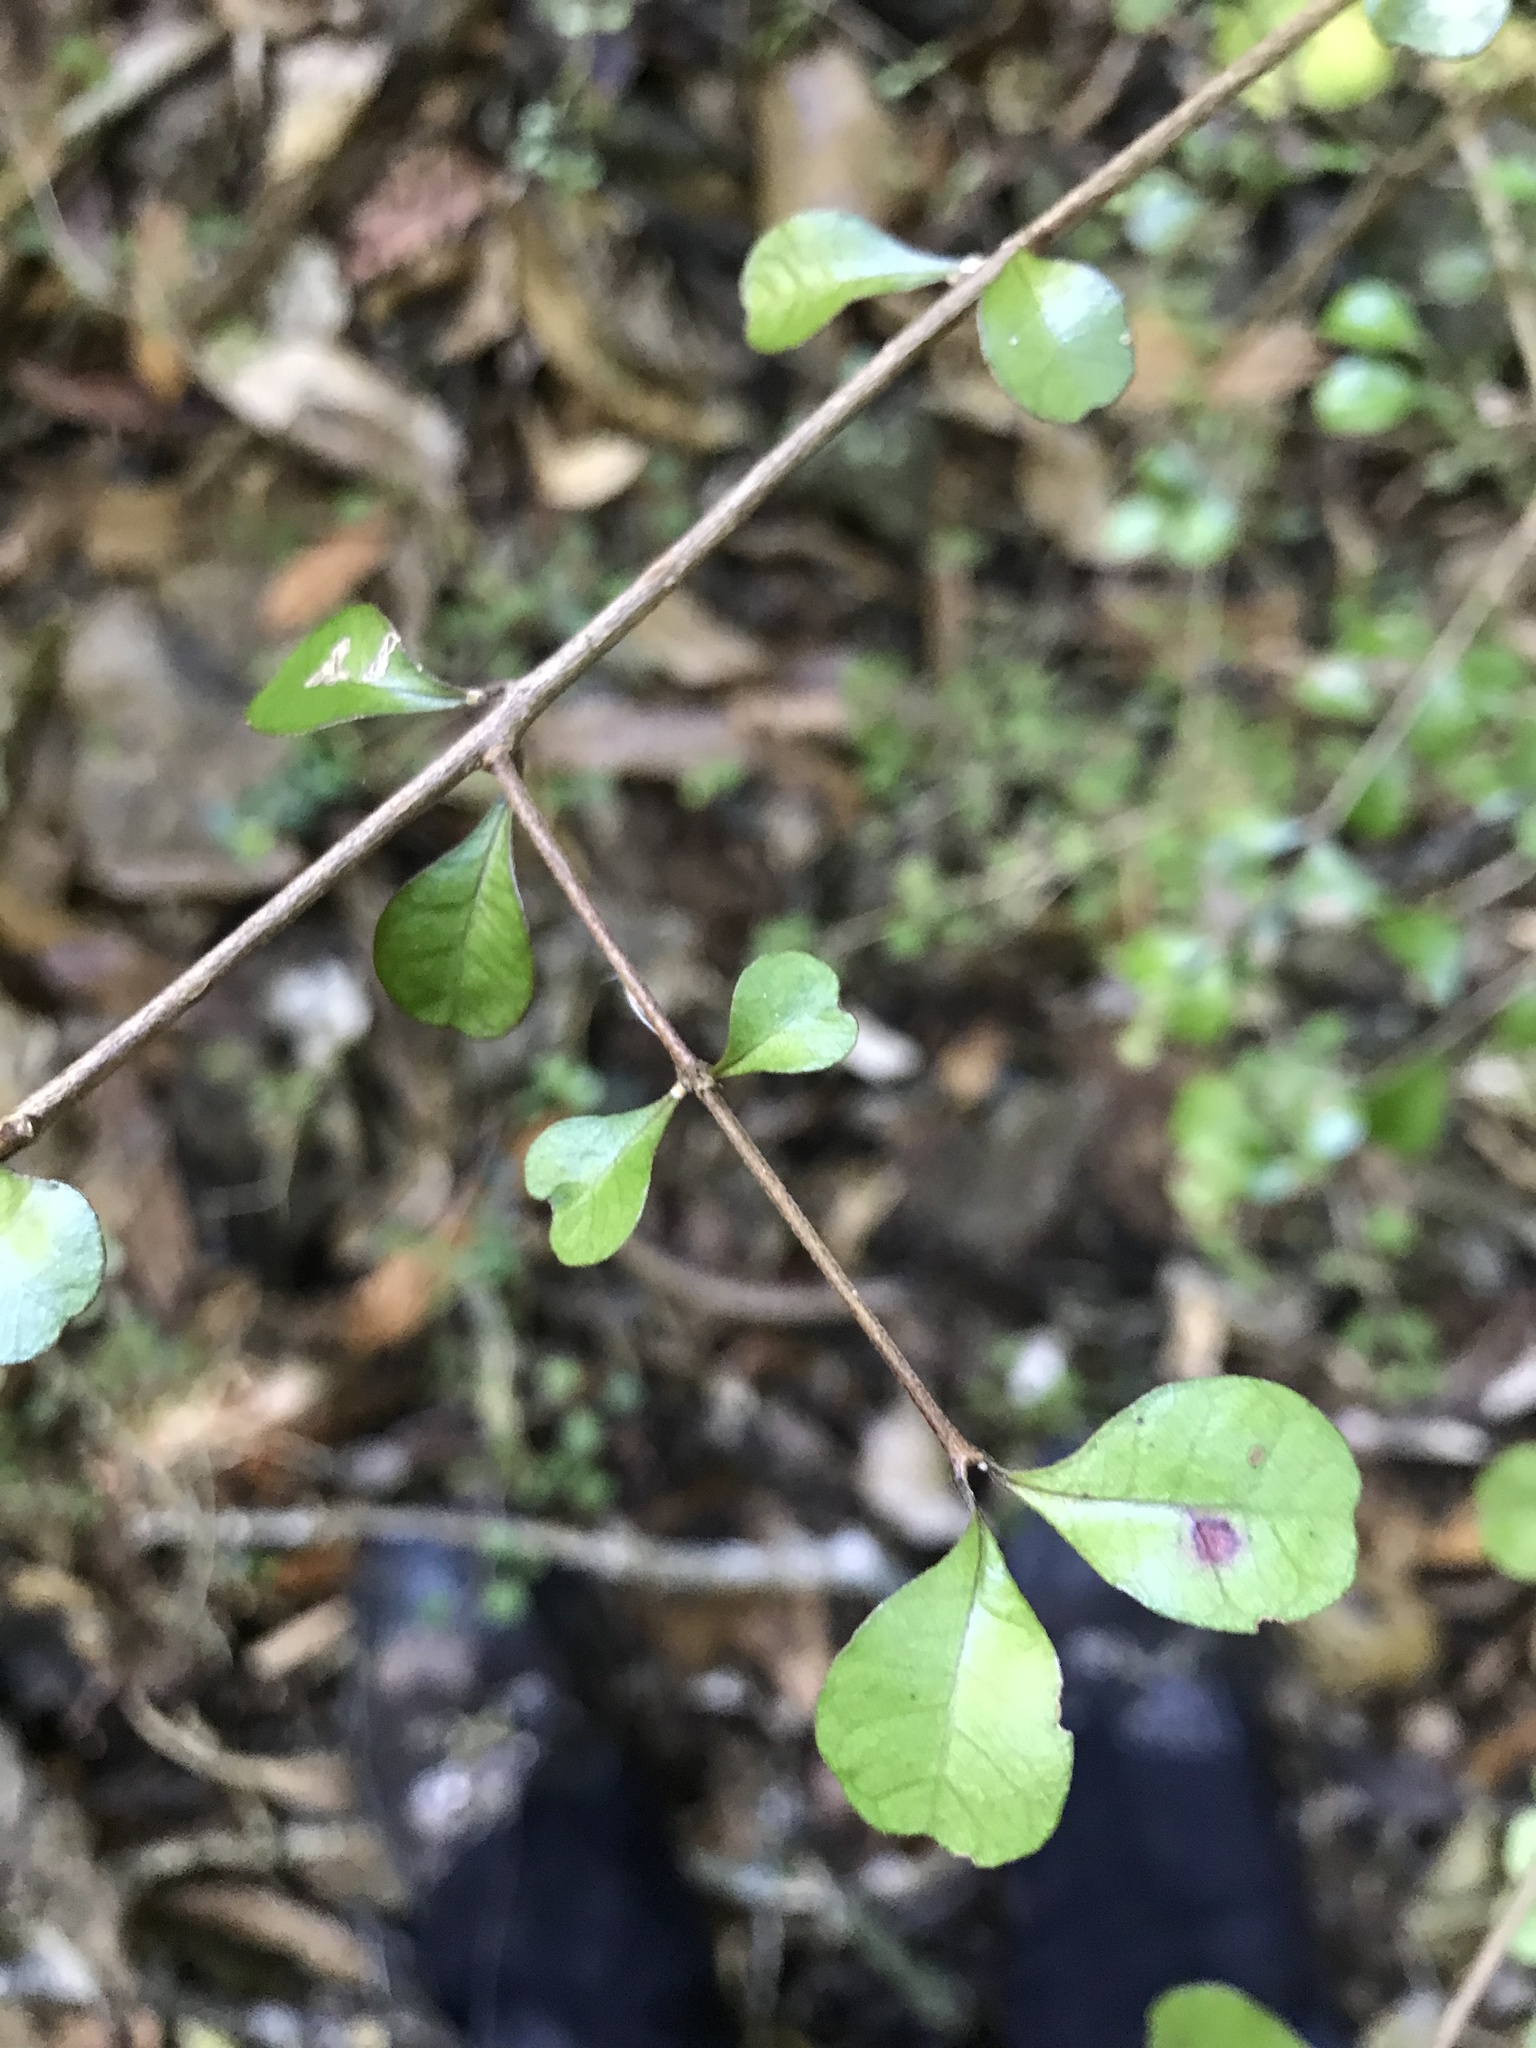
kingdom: Plantae
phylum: Tracheophyta
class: Magnoliopsida
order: Myrtales
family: Myrtaceae
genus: Lophomyrtus
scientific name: Lophomyrtus obcordata
